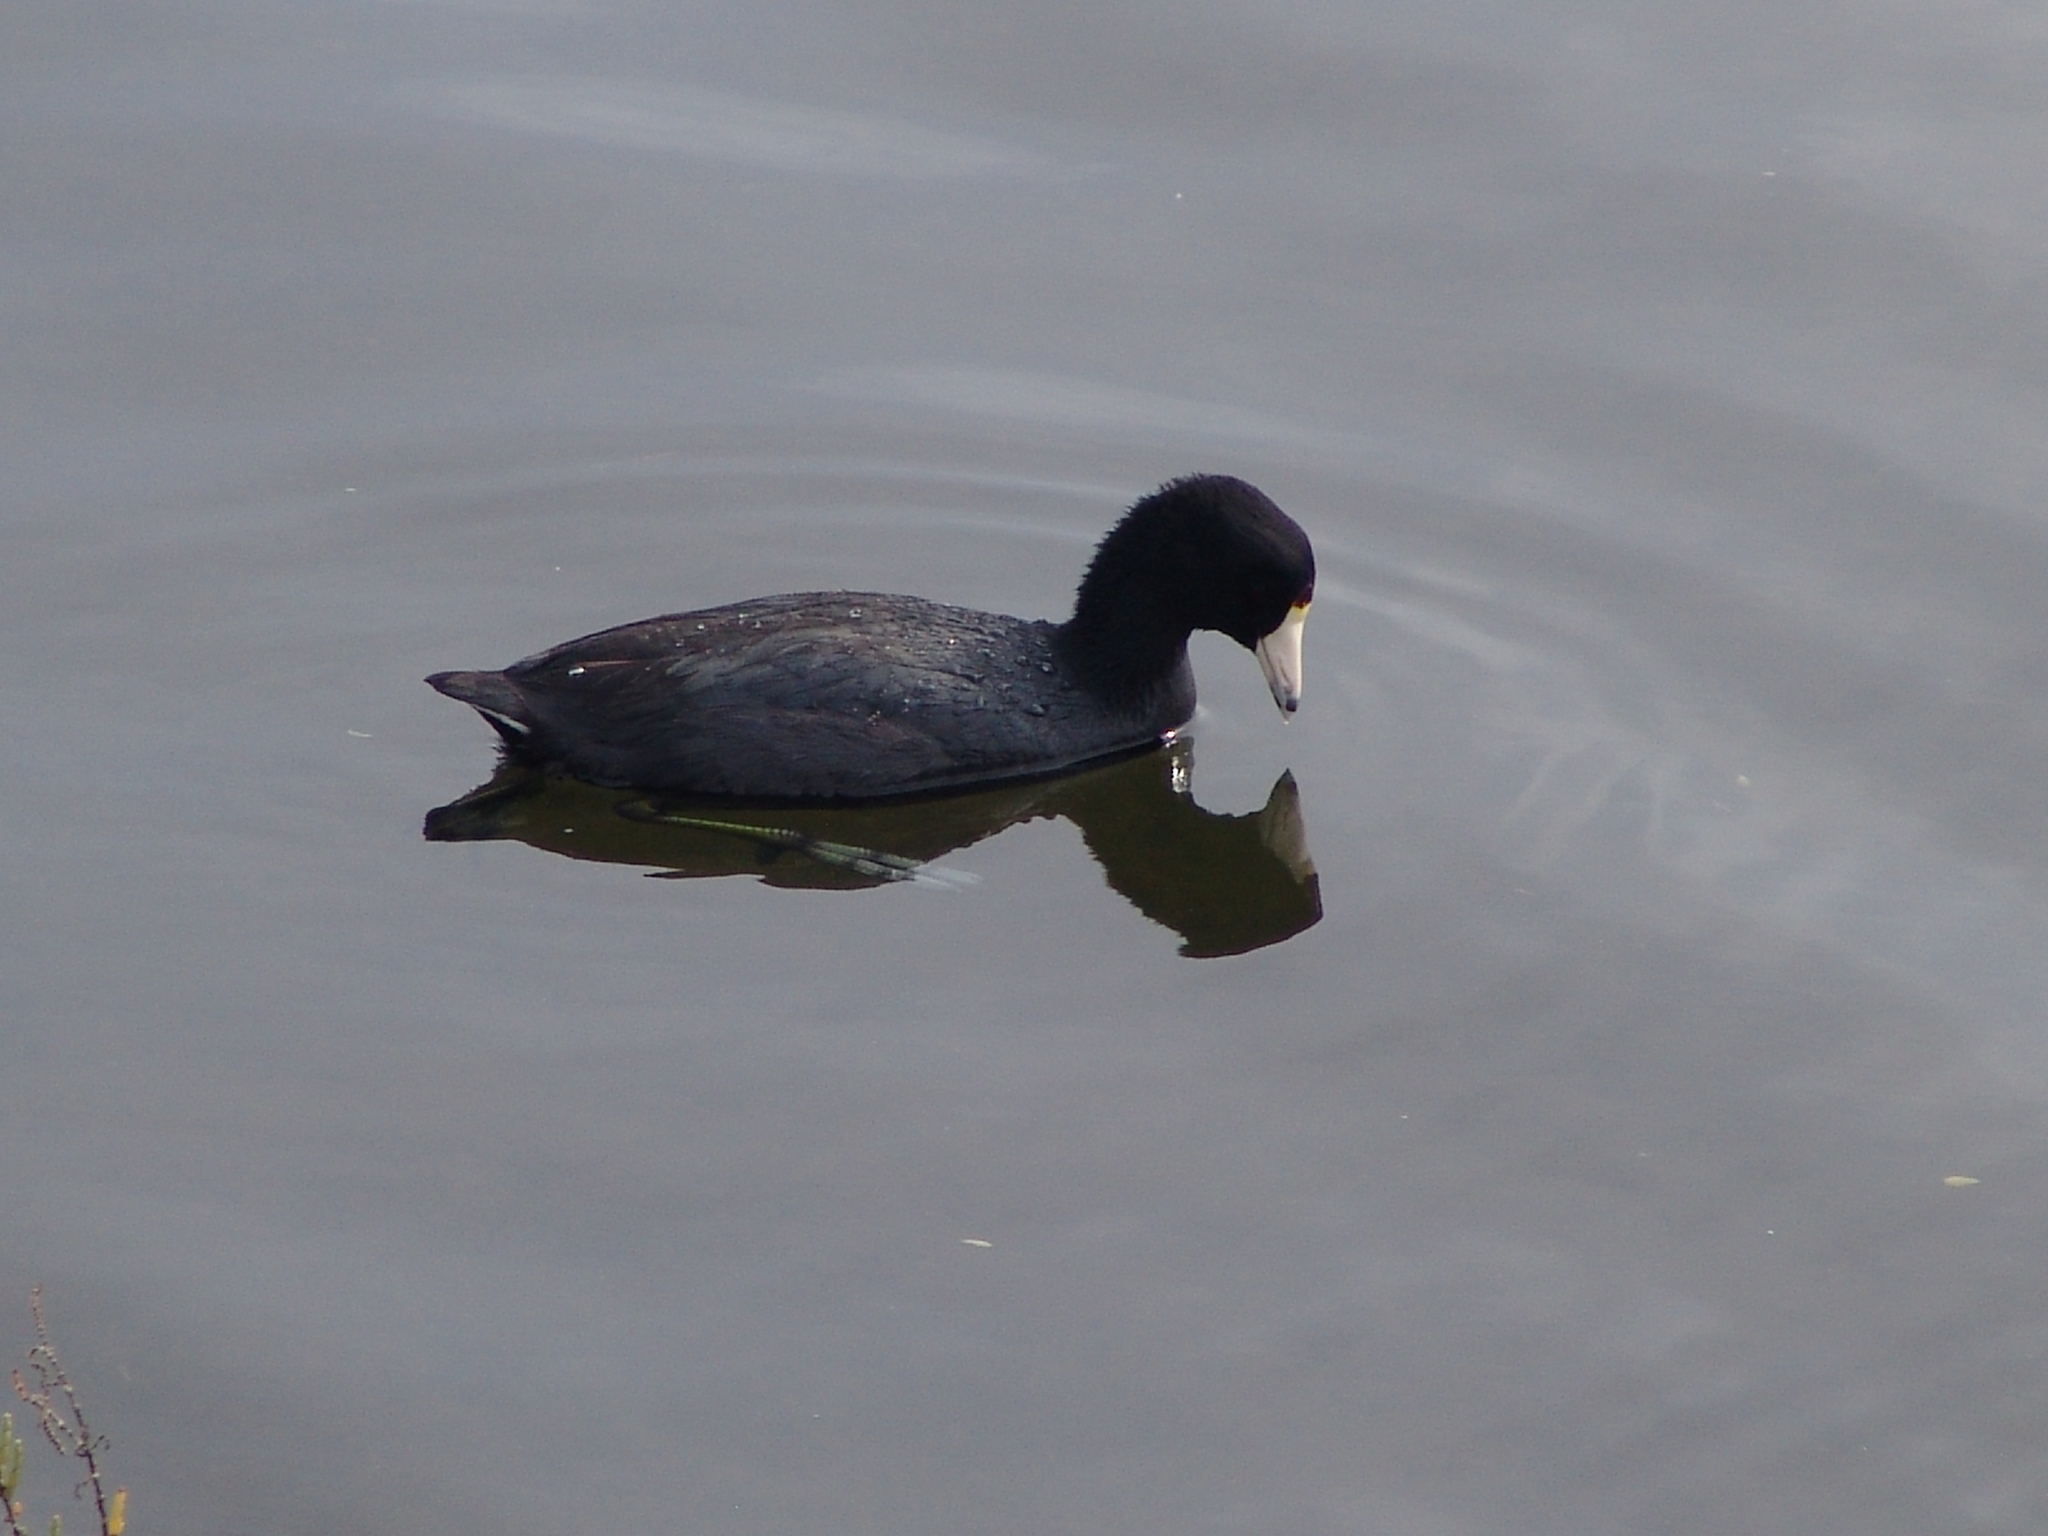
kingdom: Animalia
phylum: Chordata
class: Aves
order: Gruiformes
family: Rallidae
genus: Fulica
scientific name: Fulica americana
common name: American coot
